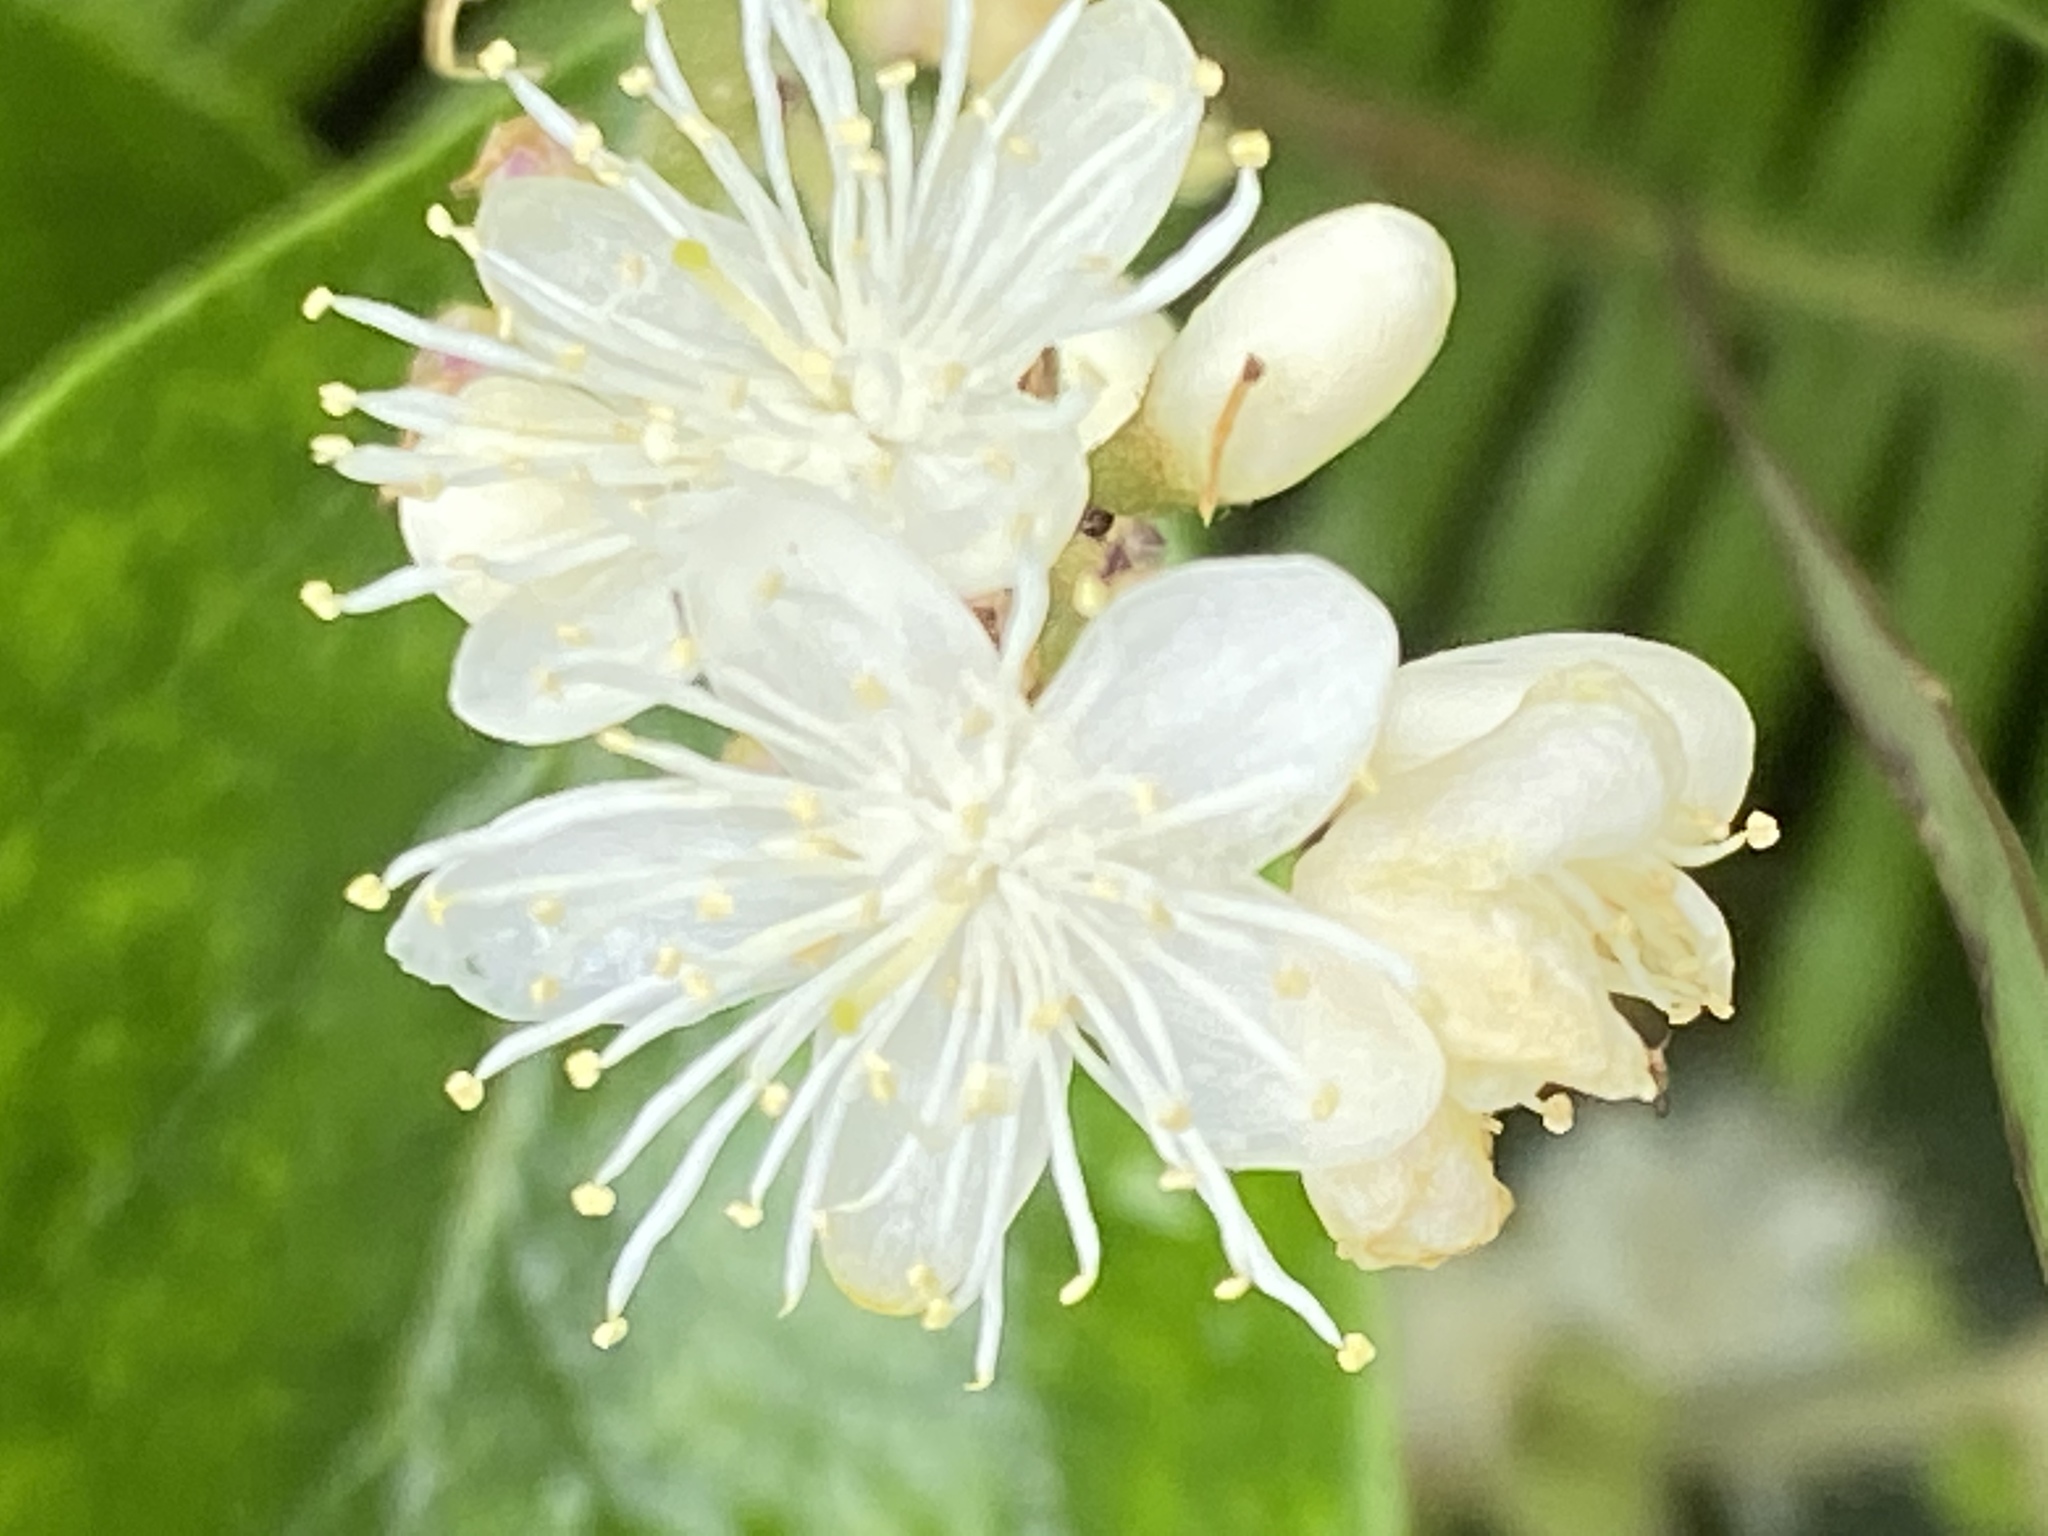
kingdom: Plantae
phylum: Tracheophyta
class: Magnoliopsida
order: Ericales
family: Symplocaceae
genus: Symplocos
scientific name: Symplocos paniculata
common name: Sapphire-berry
